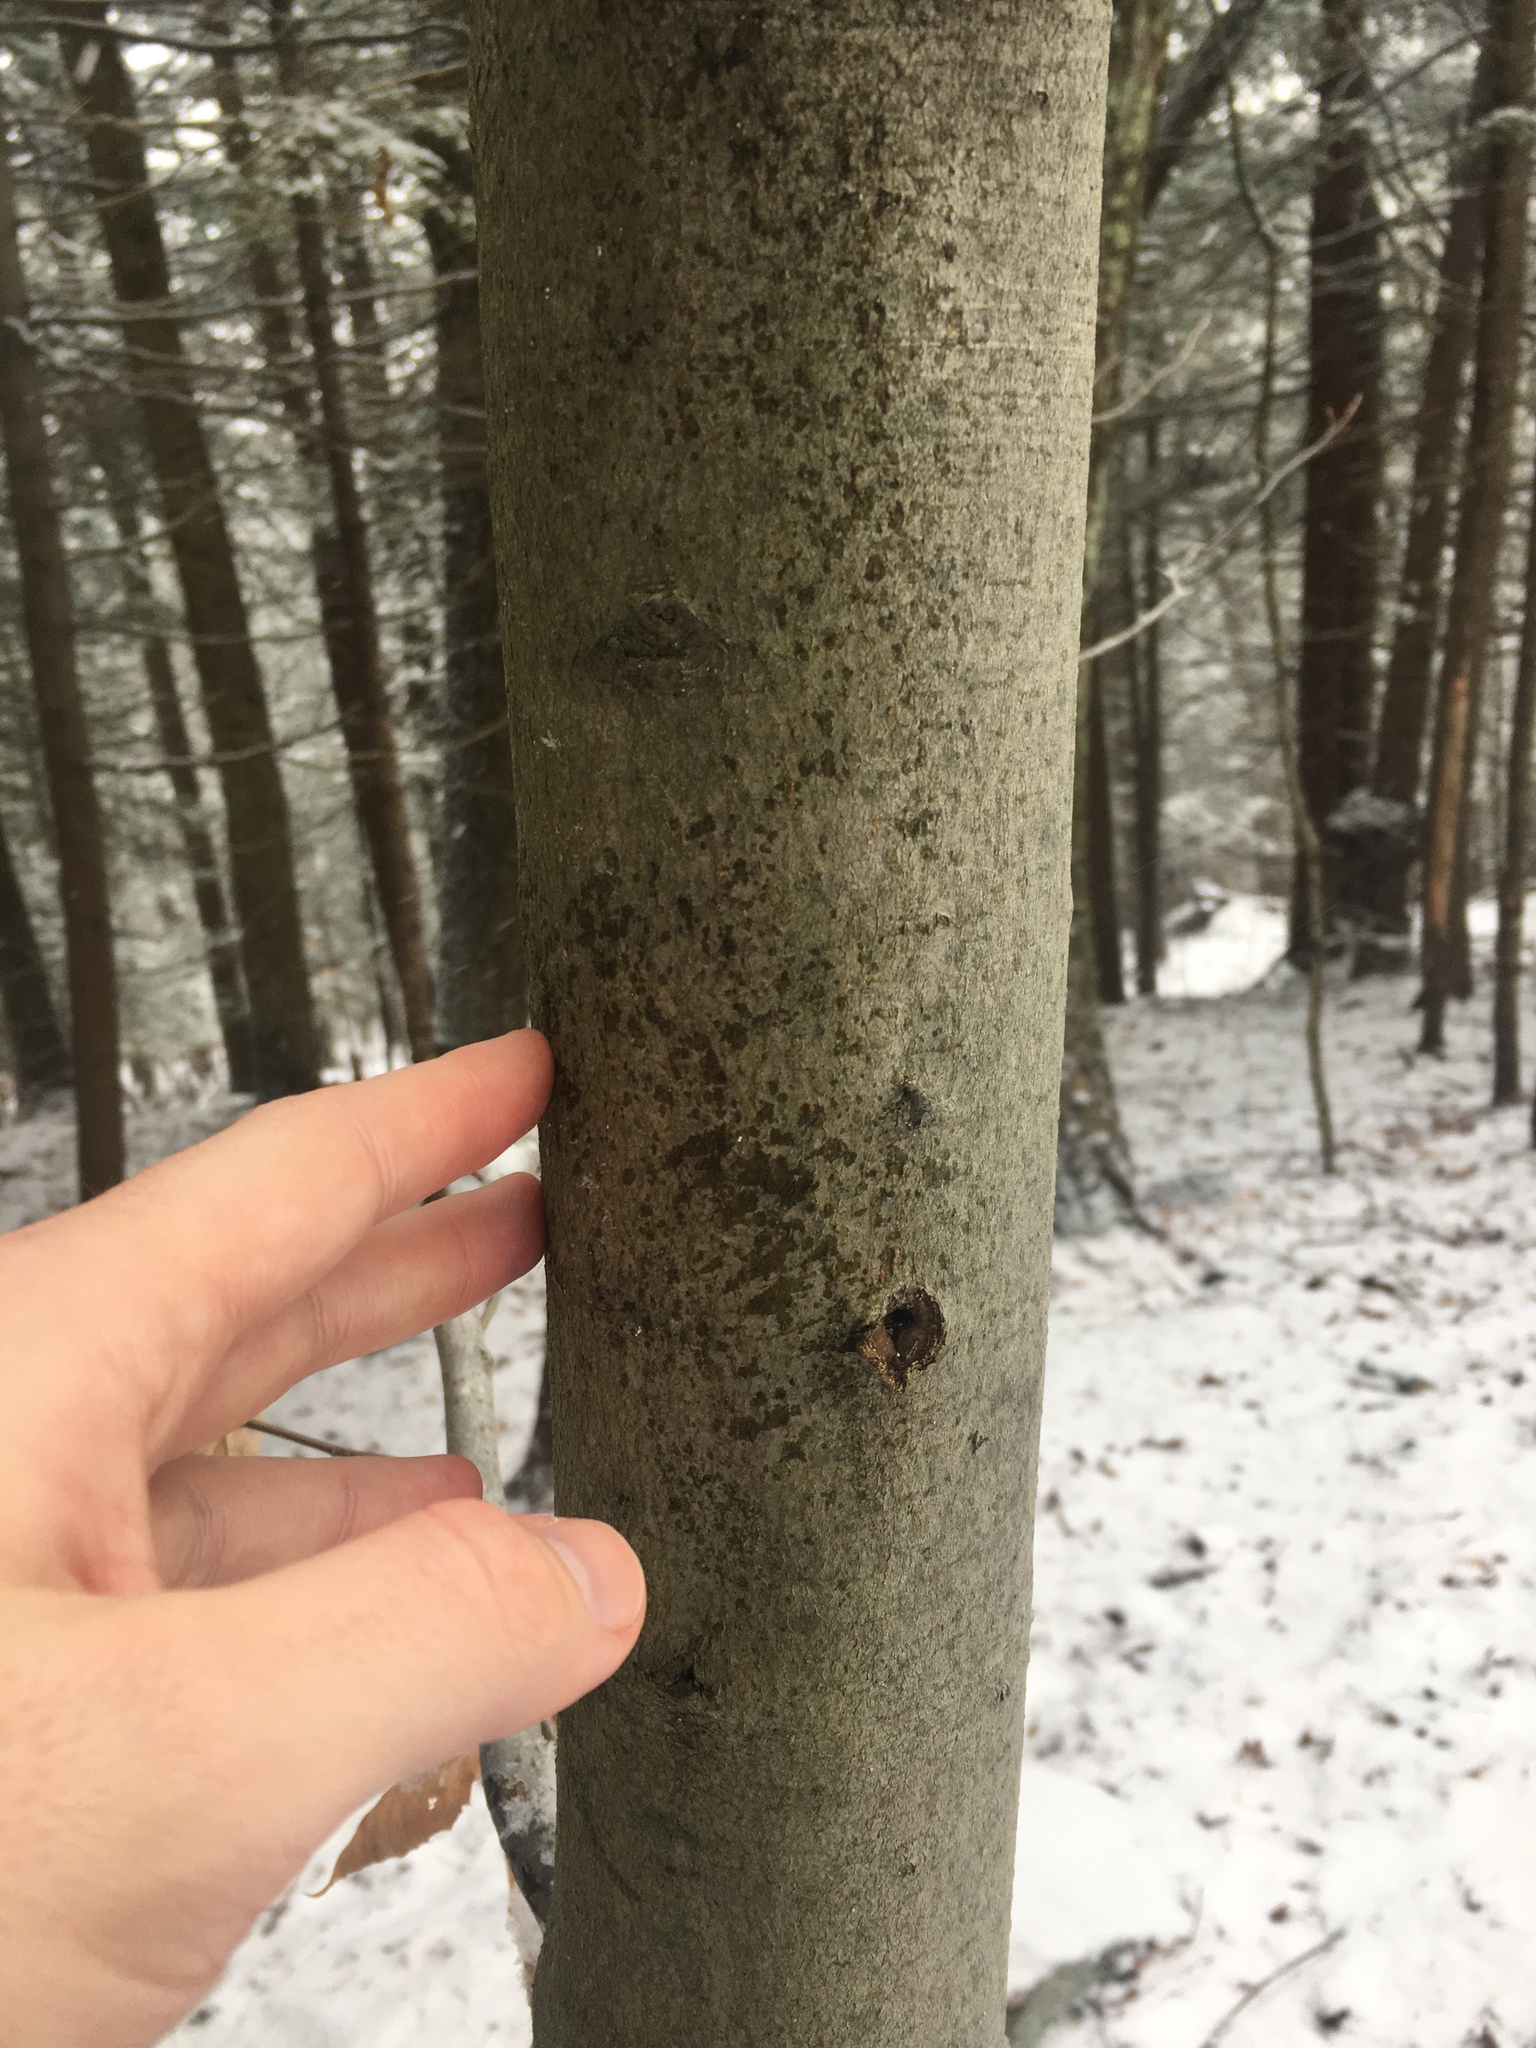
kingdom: Plantae
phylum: Tracheophyta
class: Magnoliopsida
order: Fagales
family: Fagaceae
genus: Fagus
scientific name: Fagus grandifolia
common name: American beech
